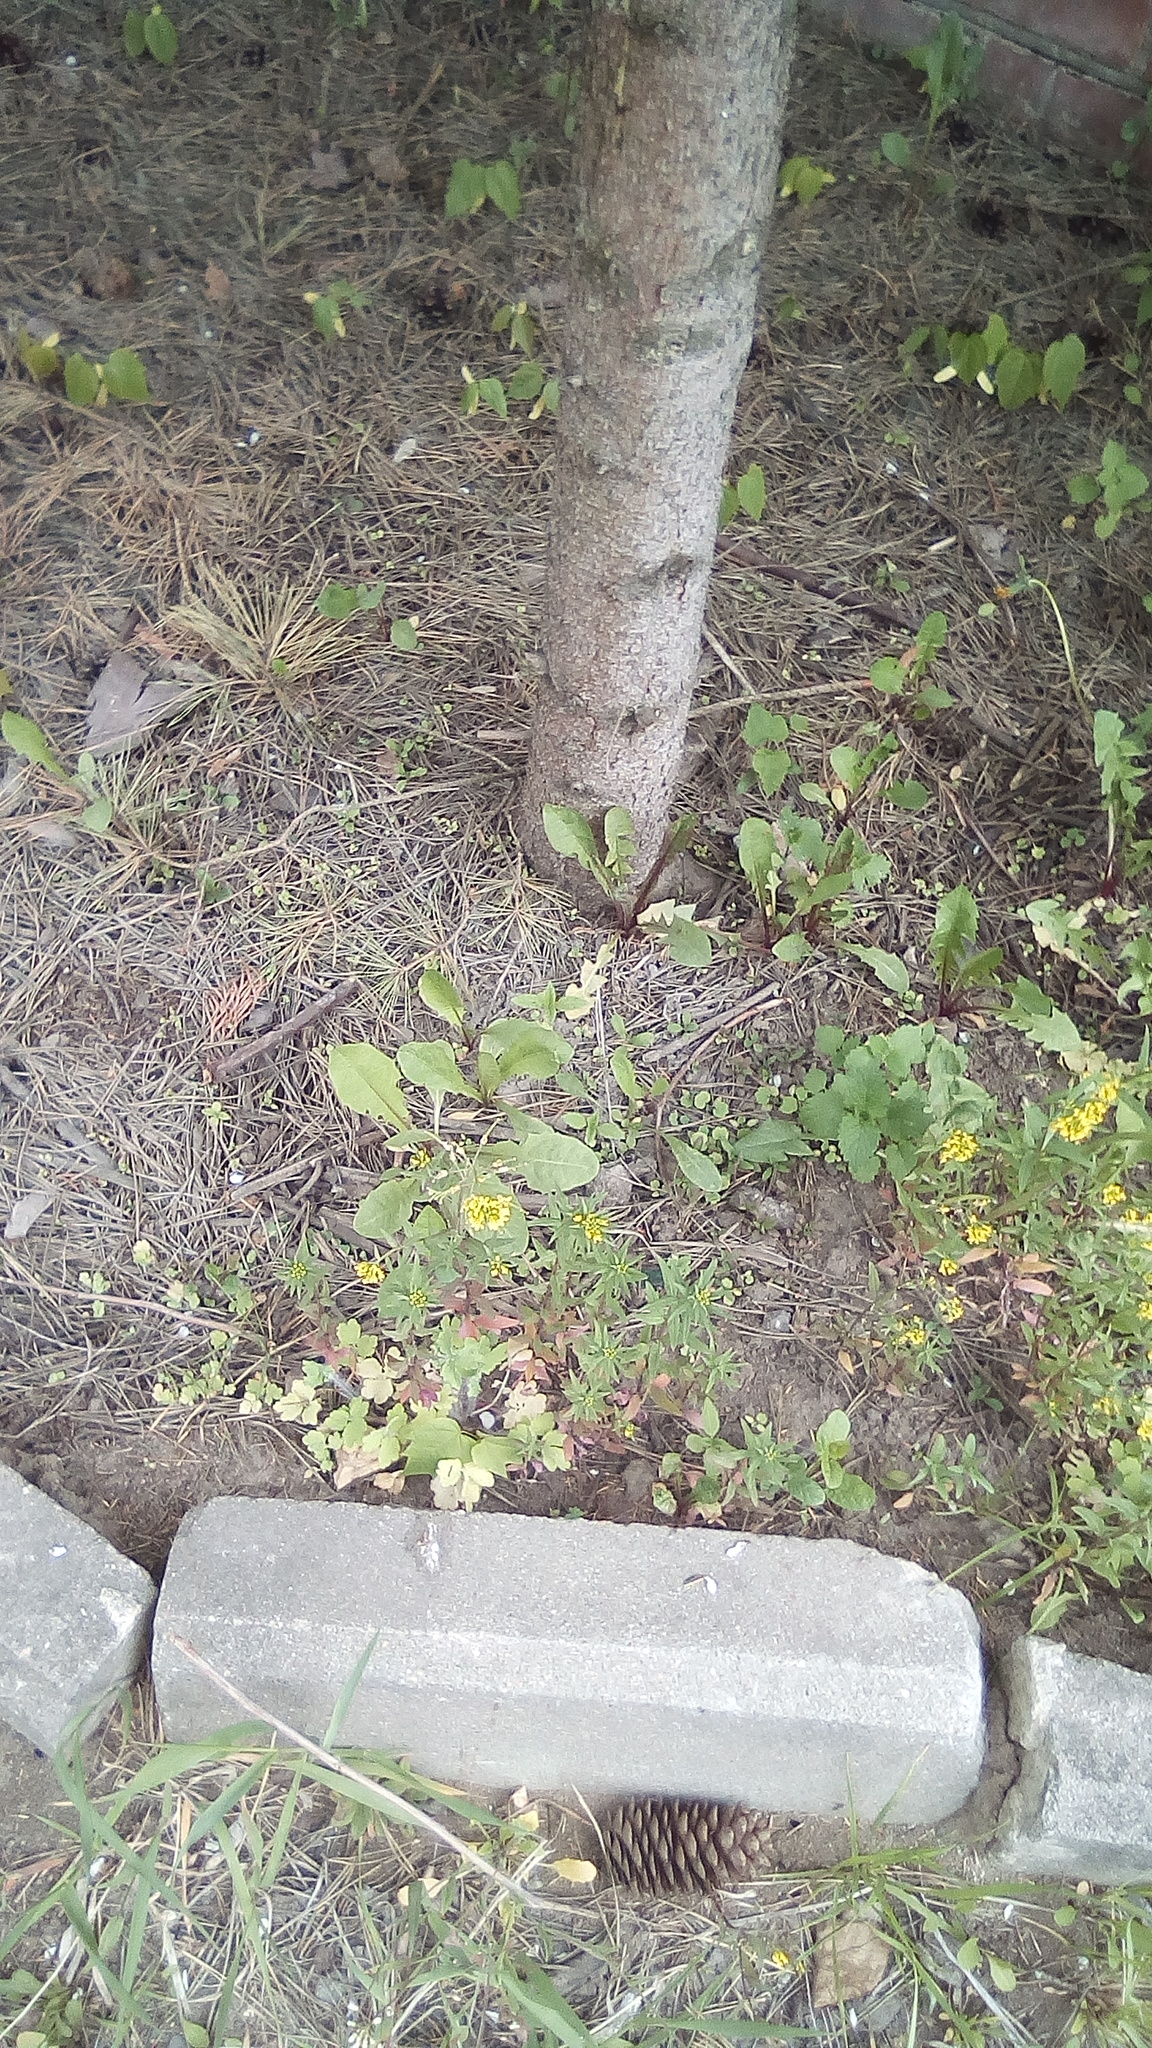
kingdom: Plantae
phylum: Tracheophyta
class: Magnoliopsida
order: Brassicales
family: Brassicaceae
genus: Erysimum
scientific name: Erysimum cheiranthoides
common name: Treacle mustard
